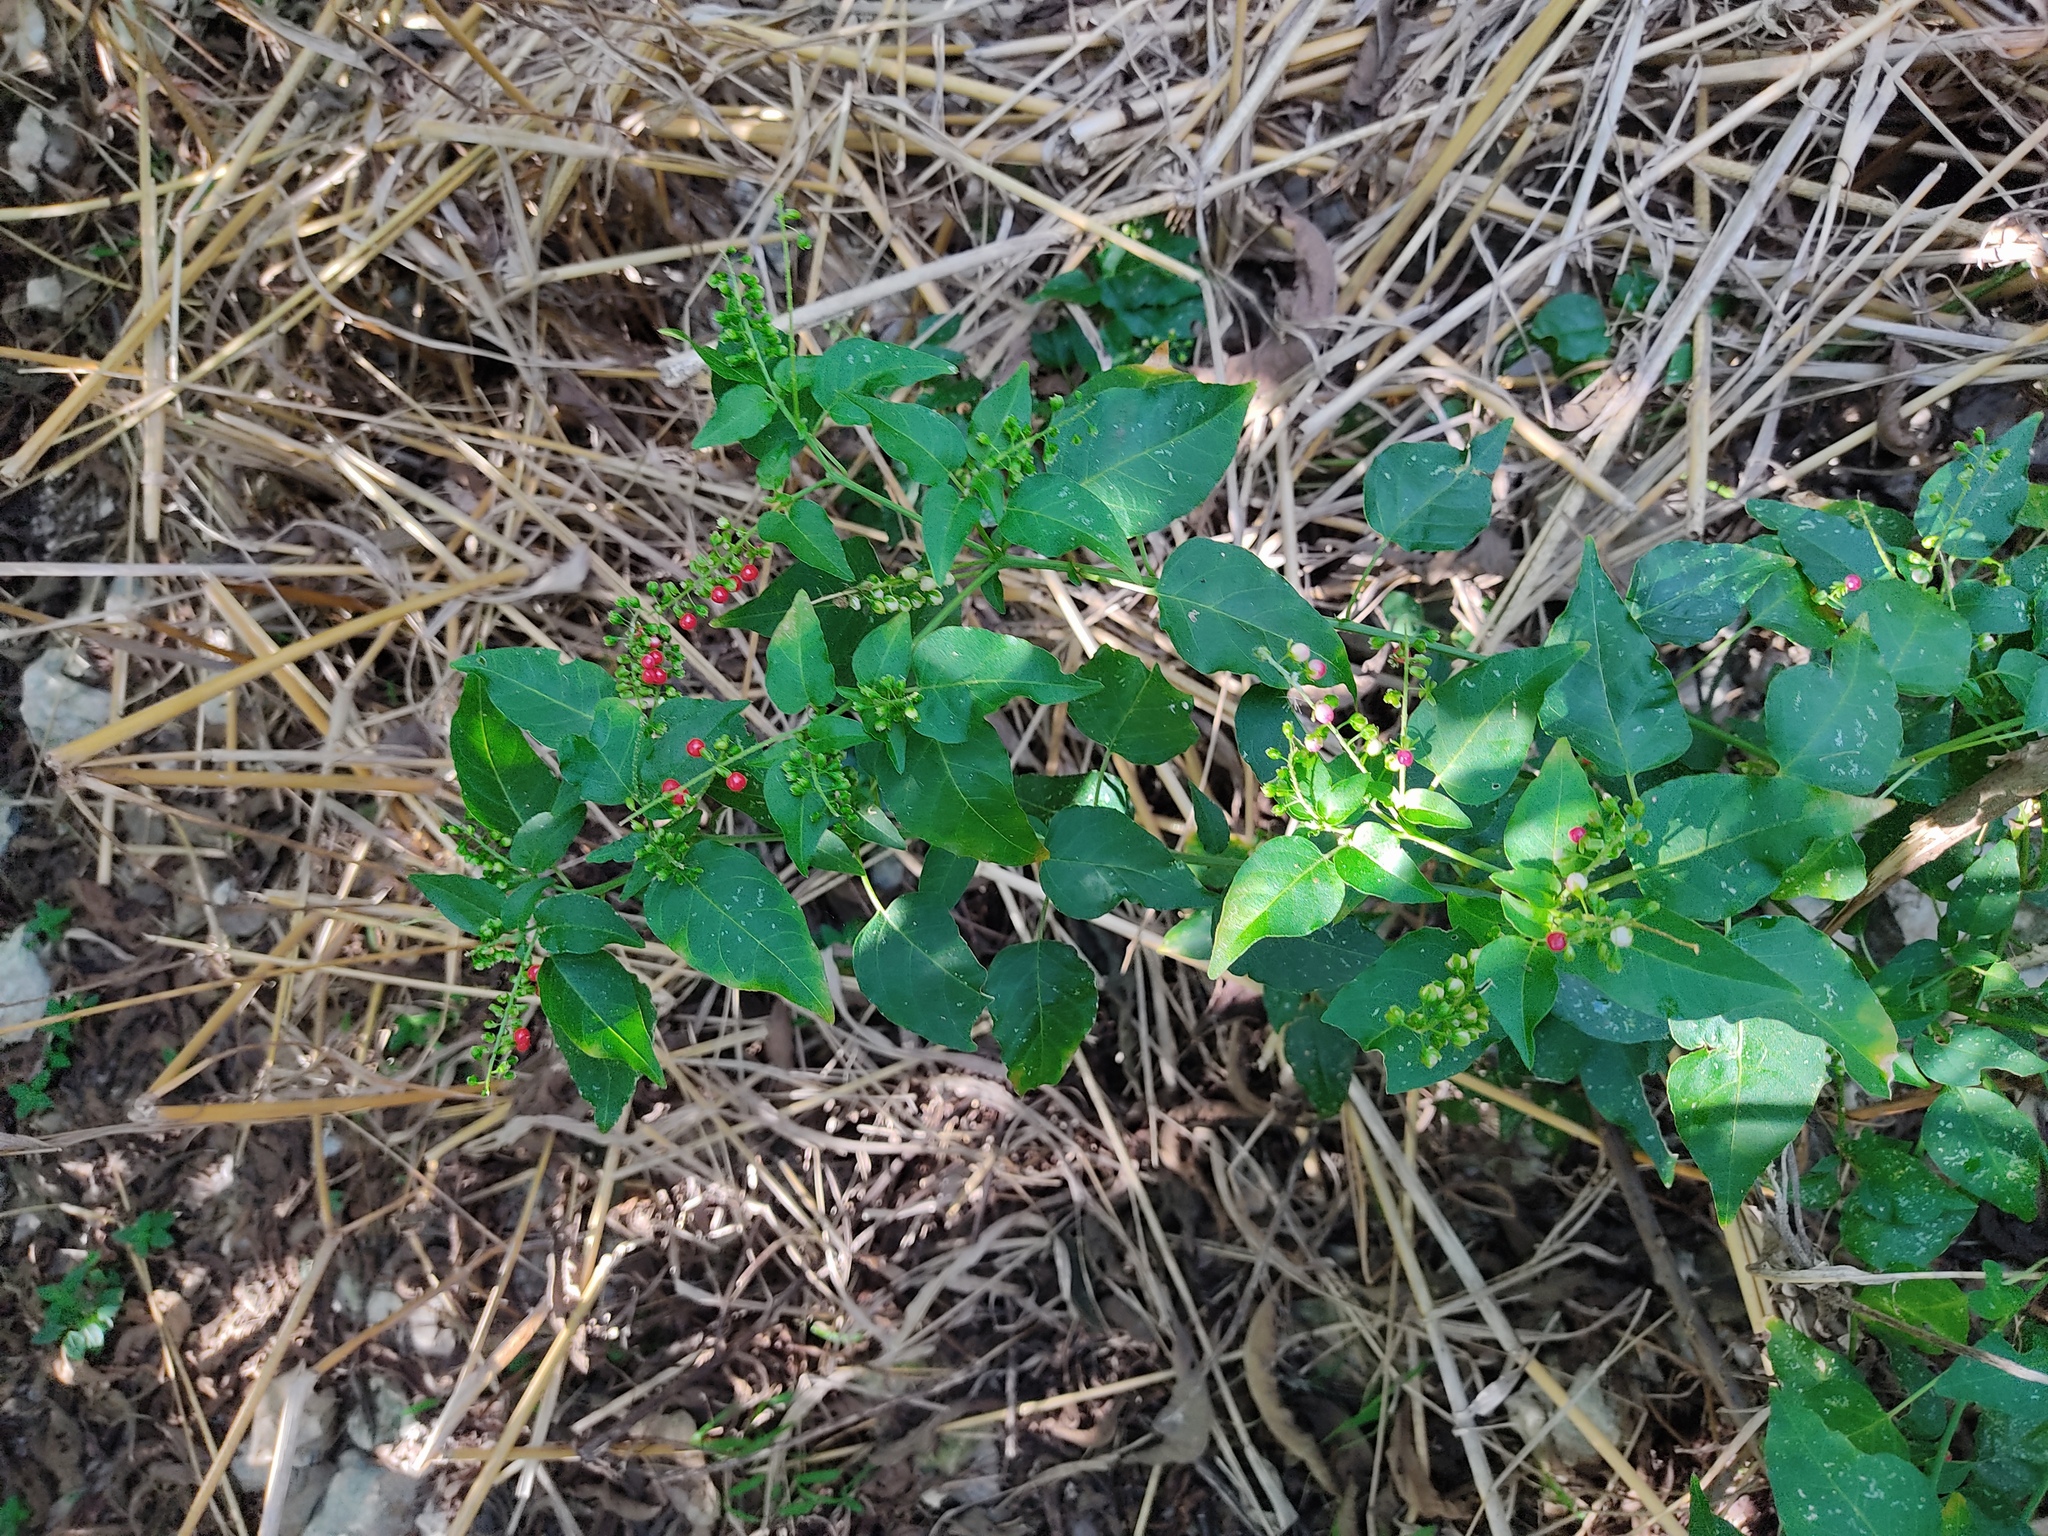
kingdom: Plantae
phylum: Tracheophyta
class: Magnoliopsida
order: Caryophyllales
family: Phytolaccaceae
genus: Rivina
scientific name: Rivina humilis
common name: Rougeplant
